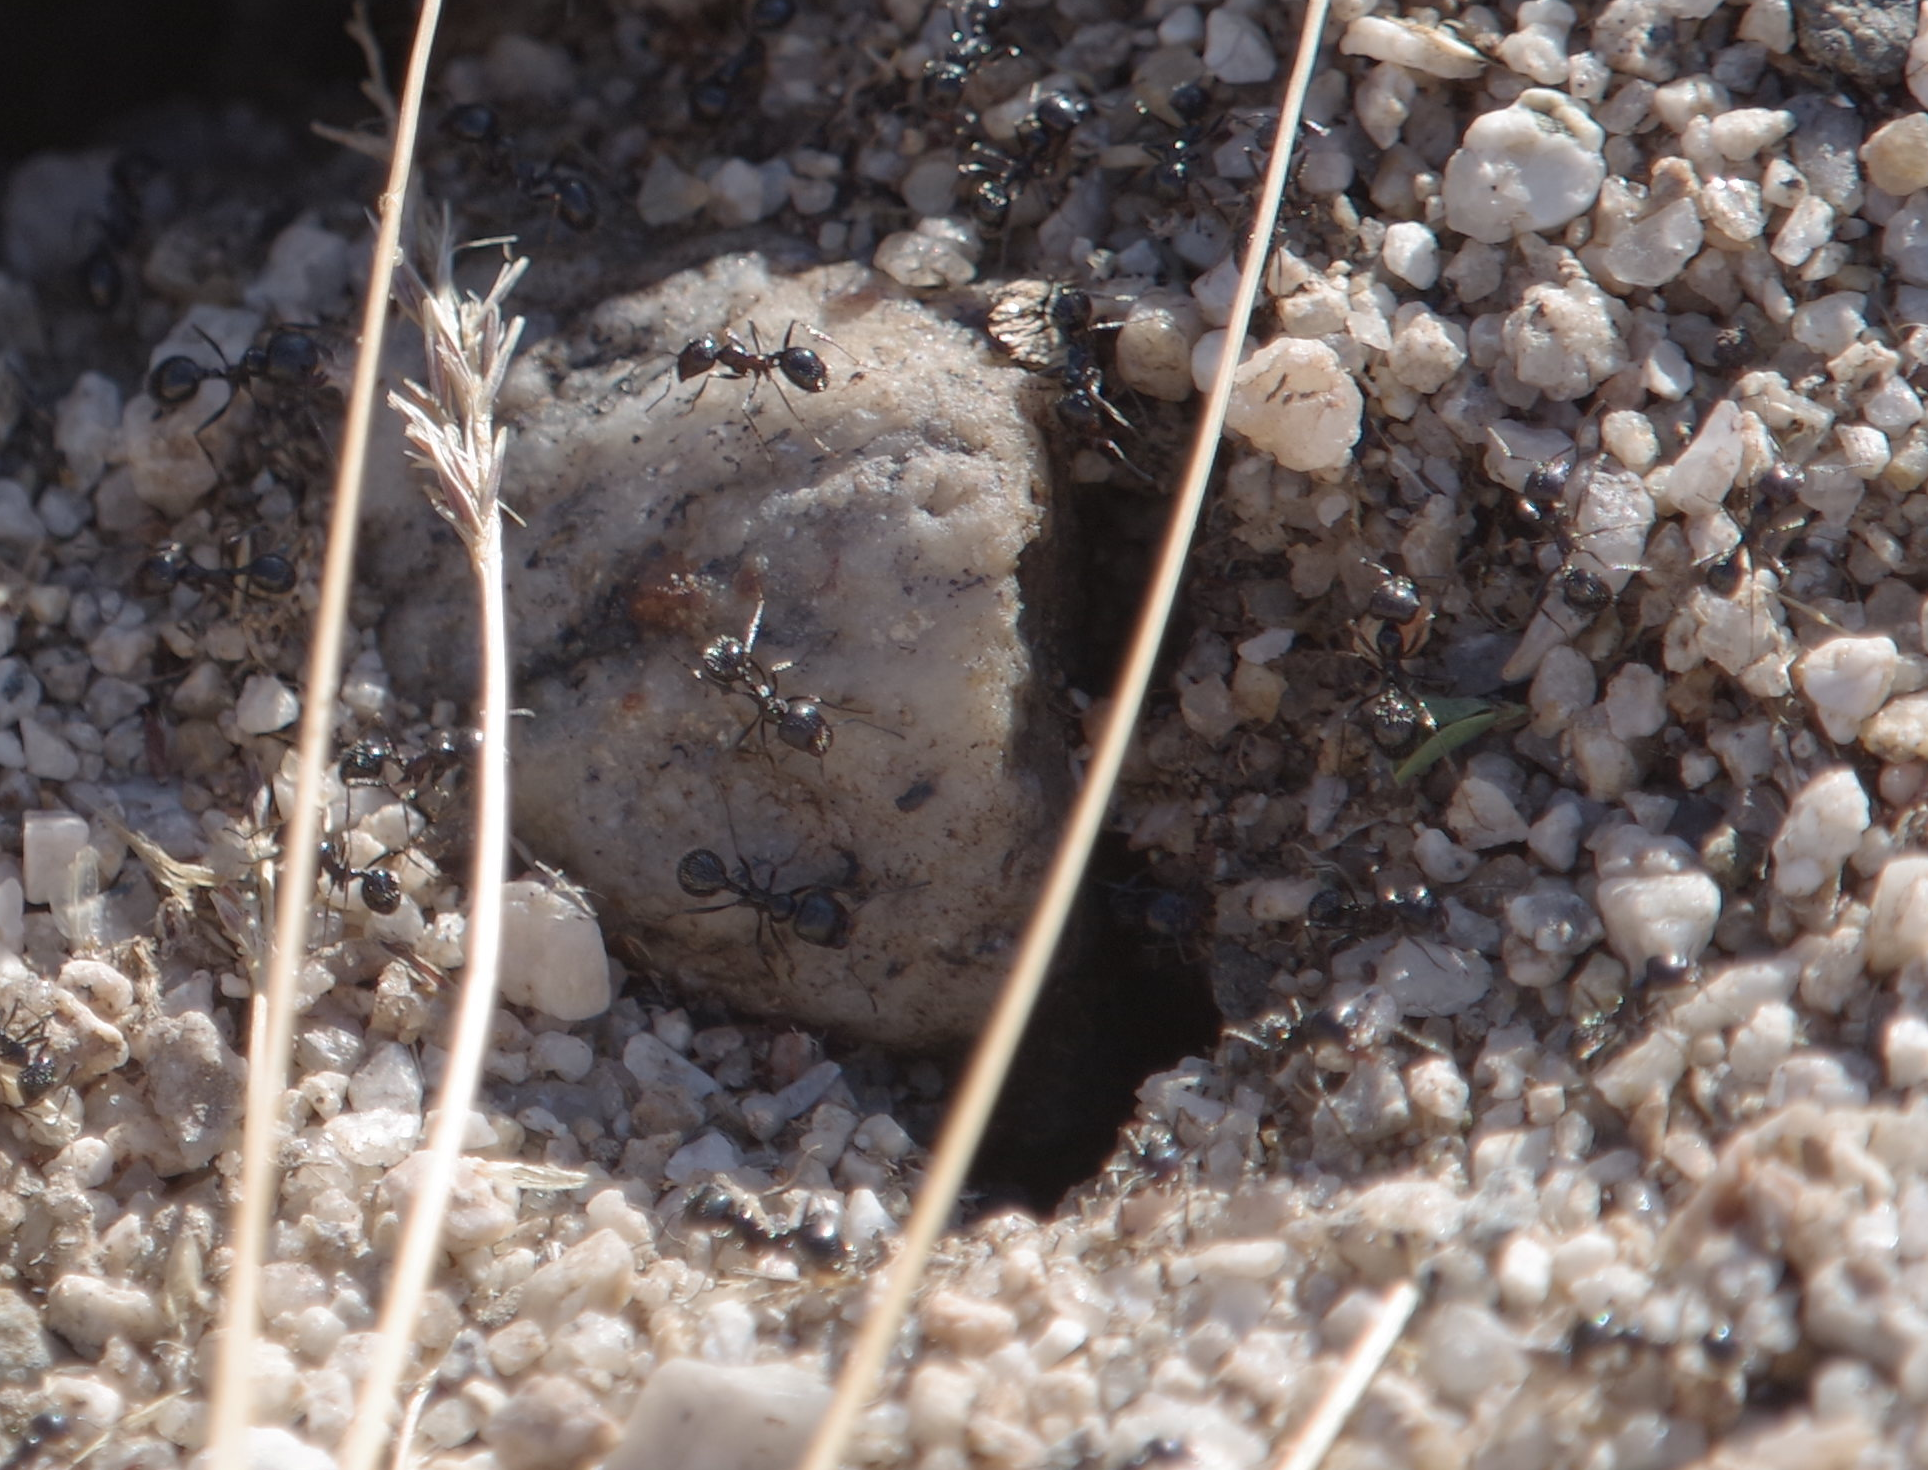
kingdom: Animalia
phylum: Arthropoda
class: Insecta
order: Hymenoptera
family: Formicidae
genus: Messor
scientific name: Messor pergandei
